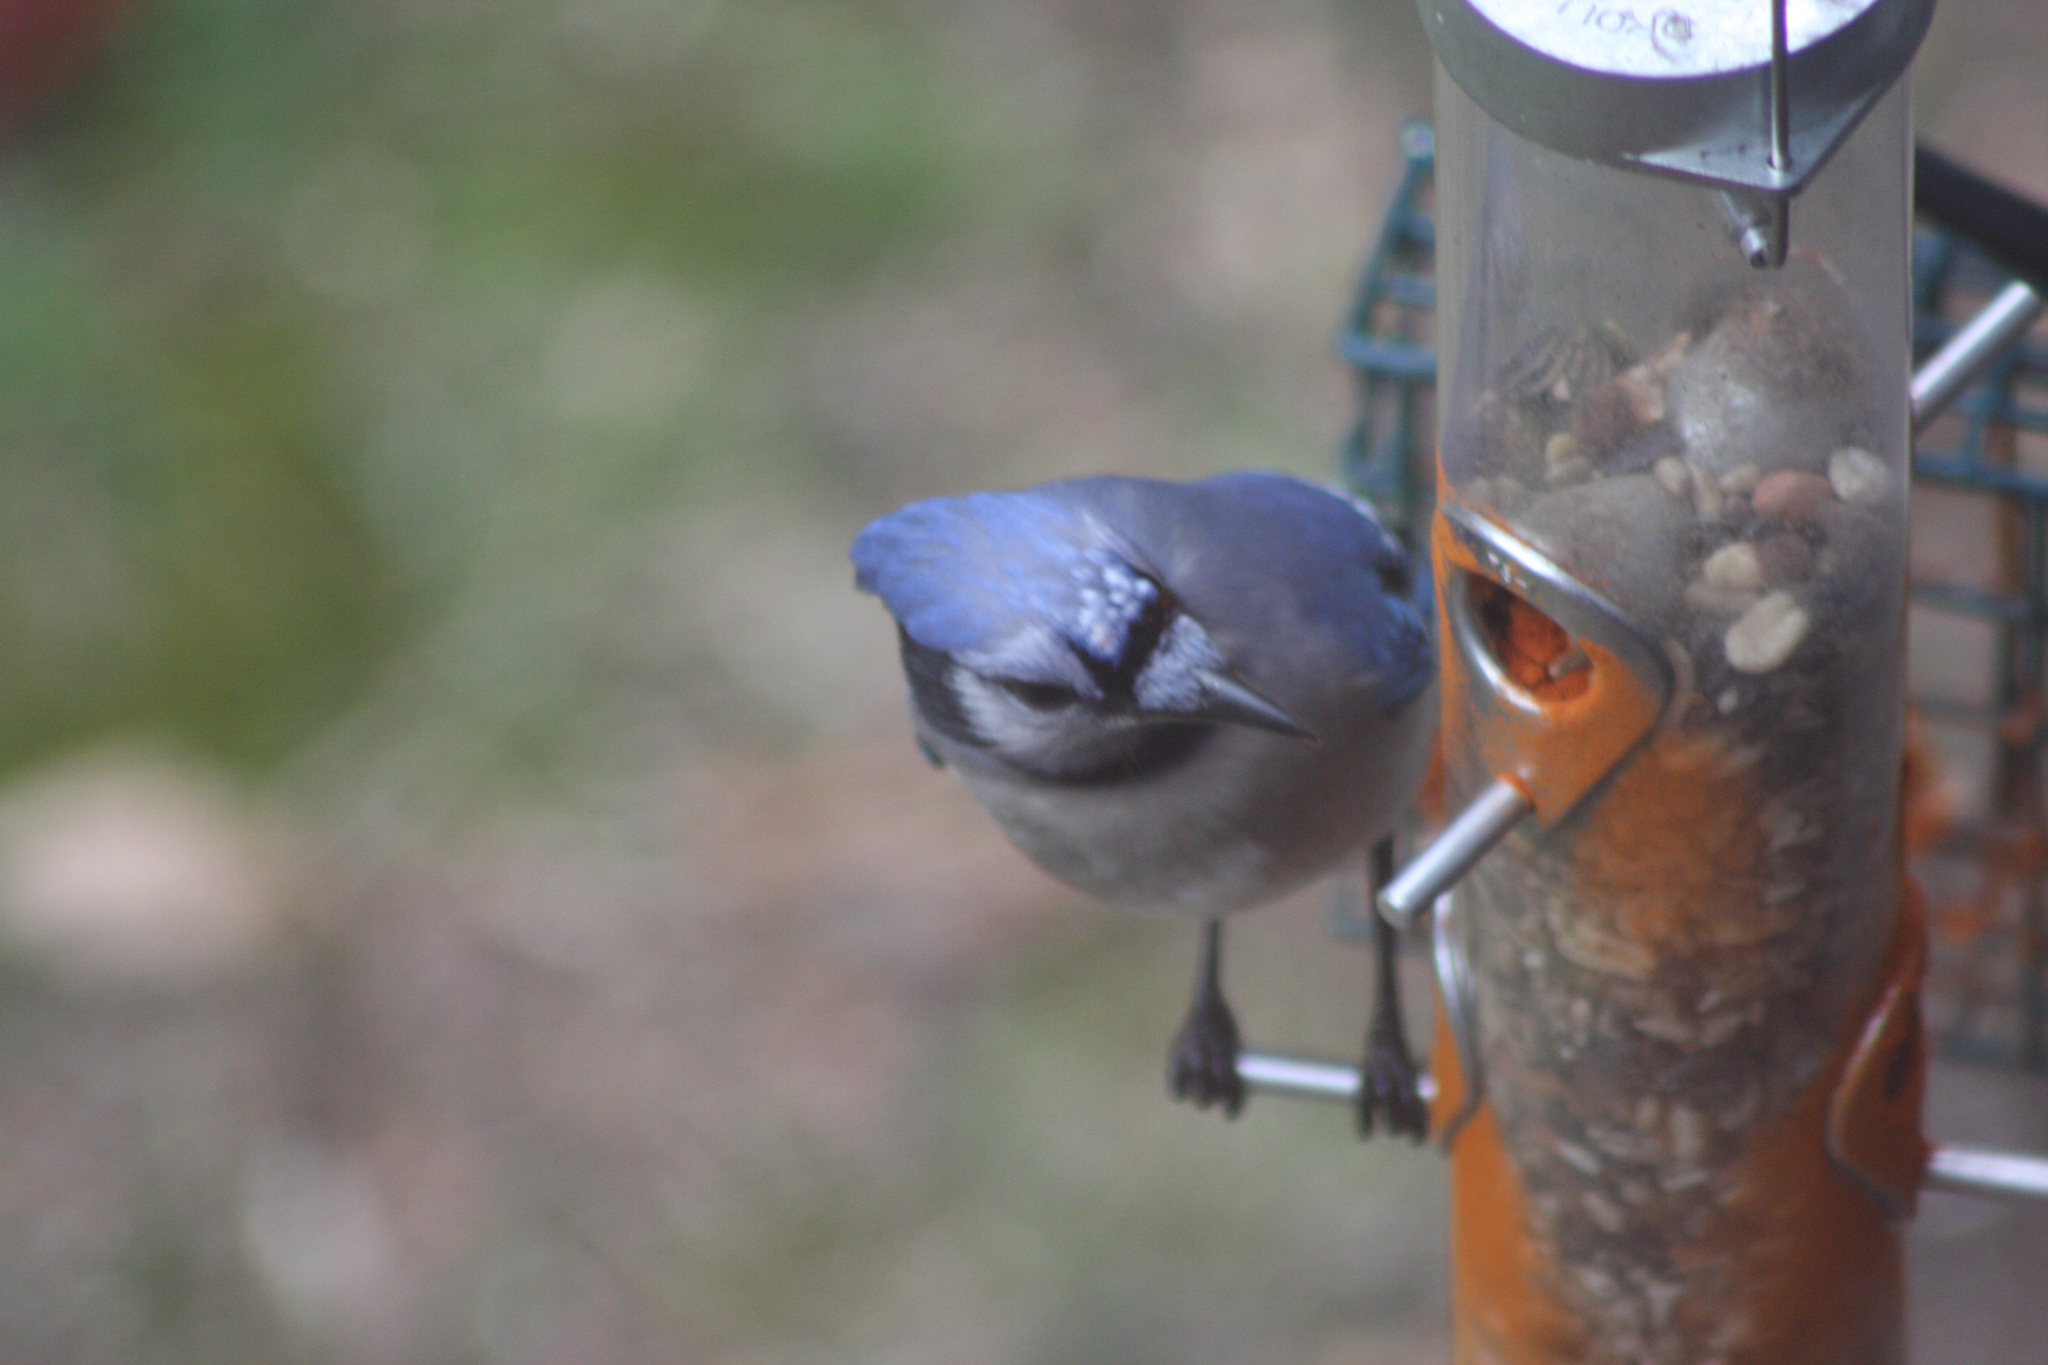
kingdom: Animalia
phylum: Chordata
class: Aves
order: Passeriformes
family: Corvidae
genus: Cyanocitta
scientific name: Cyanocitta cristata
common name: Blue jay
